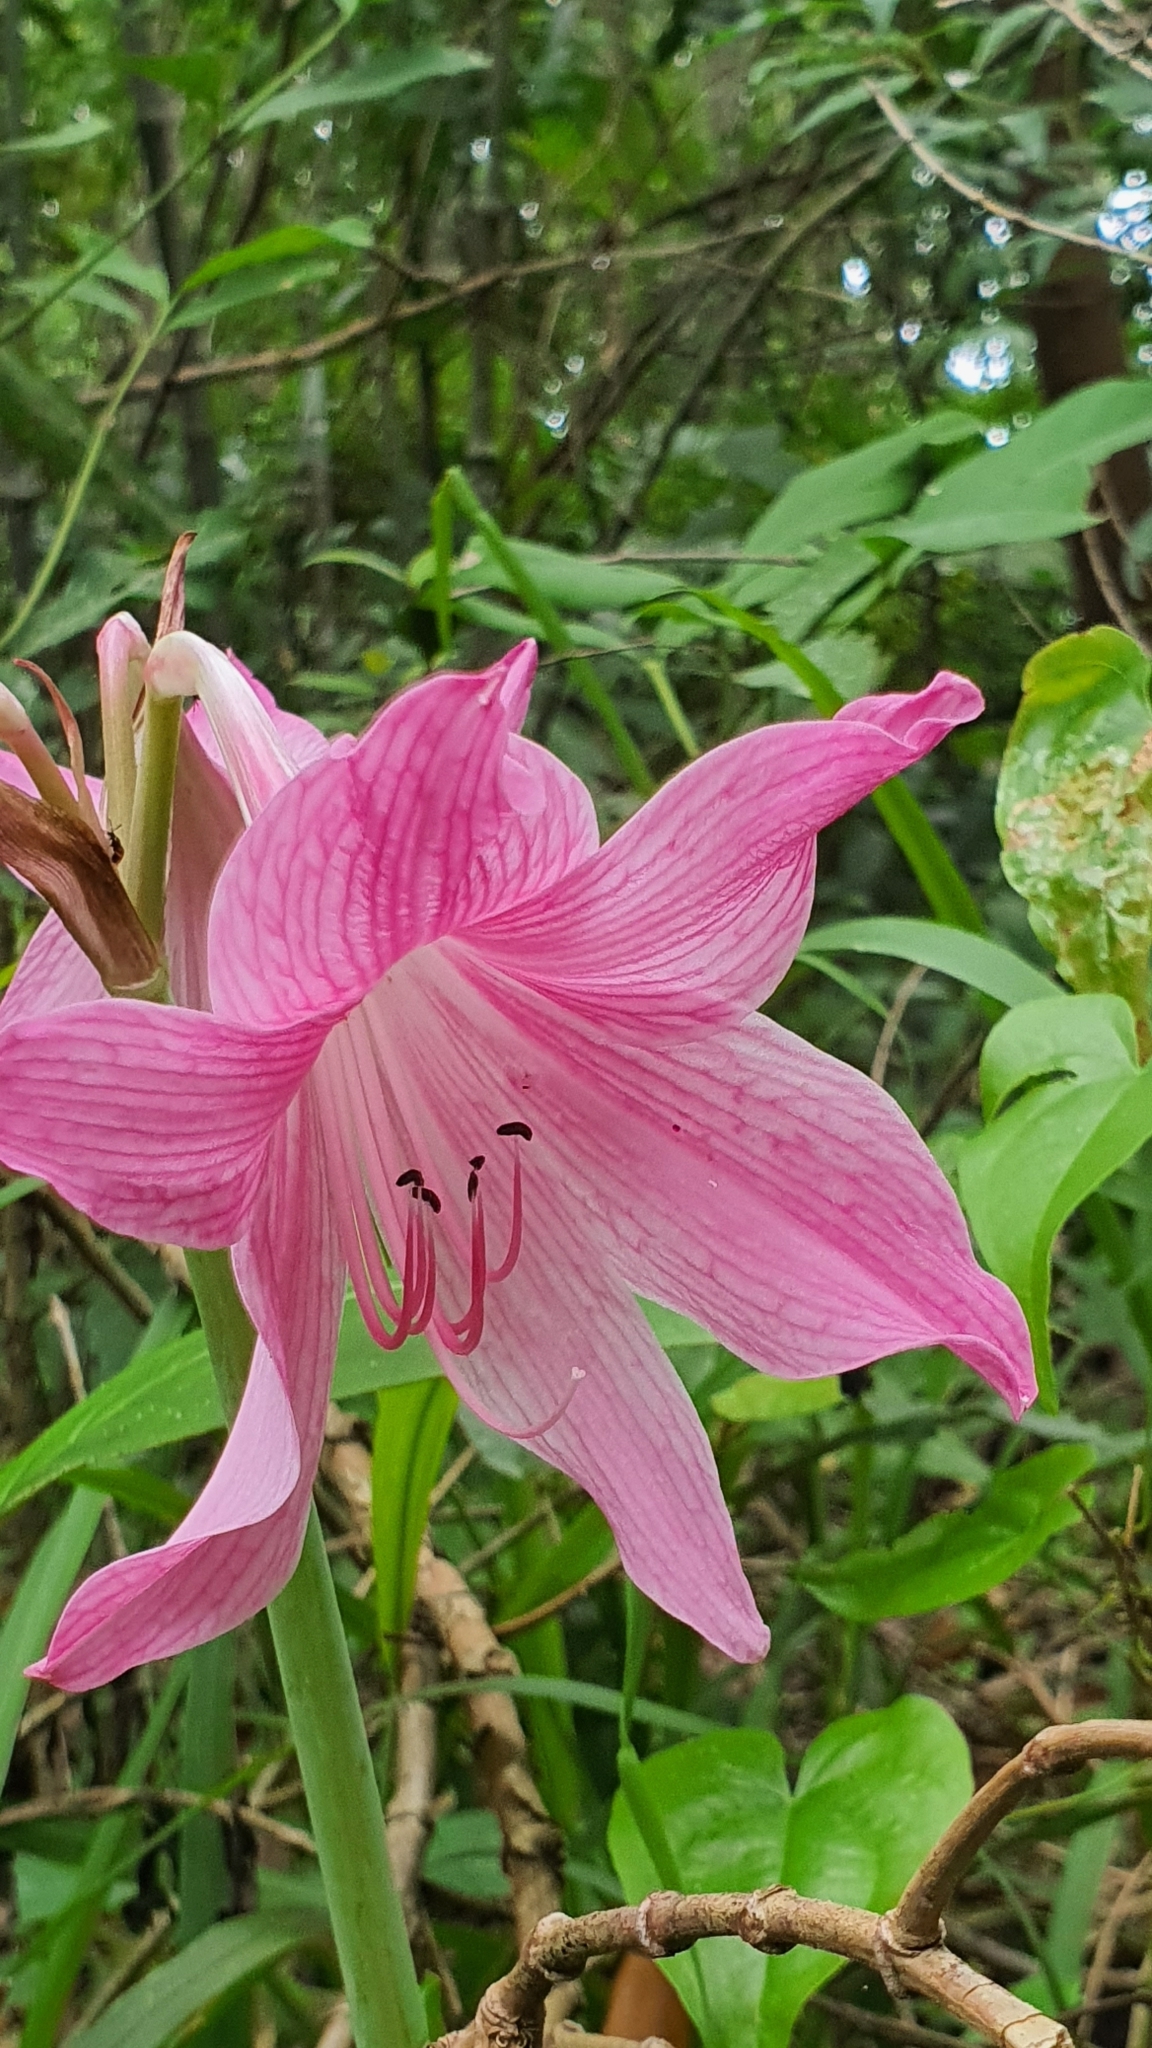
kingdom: Plantae
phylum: Tracheophyta
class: Liliopsida
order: Asparagales
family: Amaryllidaceae
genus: Hippeastrum
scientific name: Hippeastrum reticulatum
